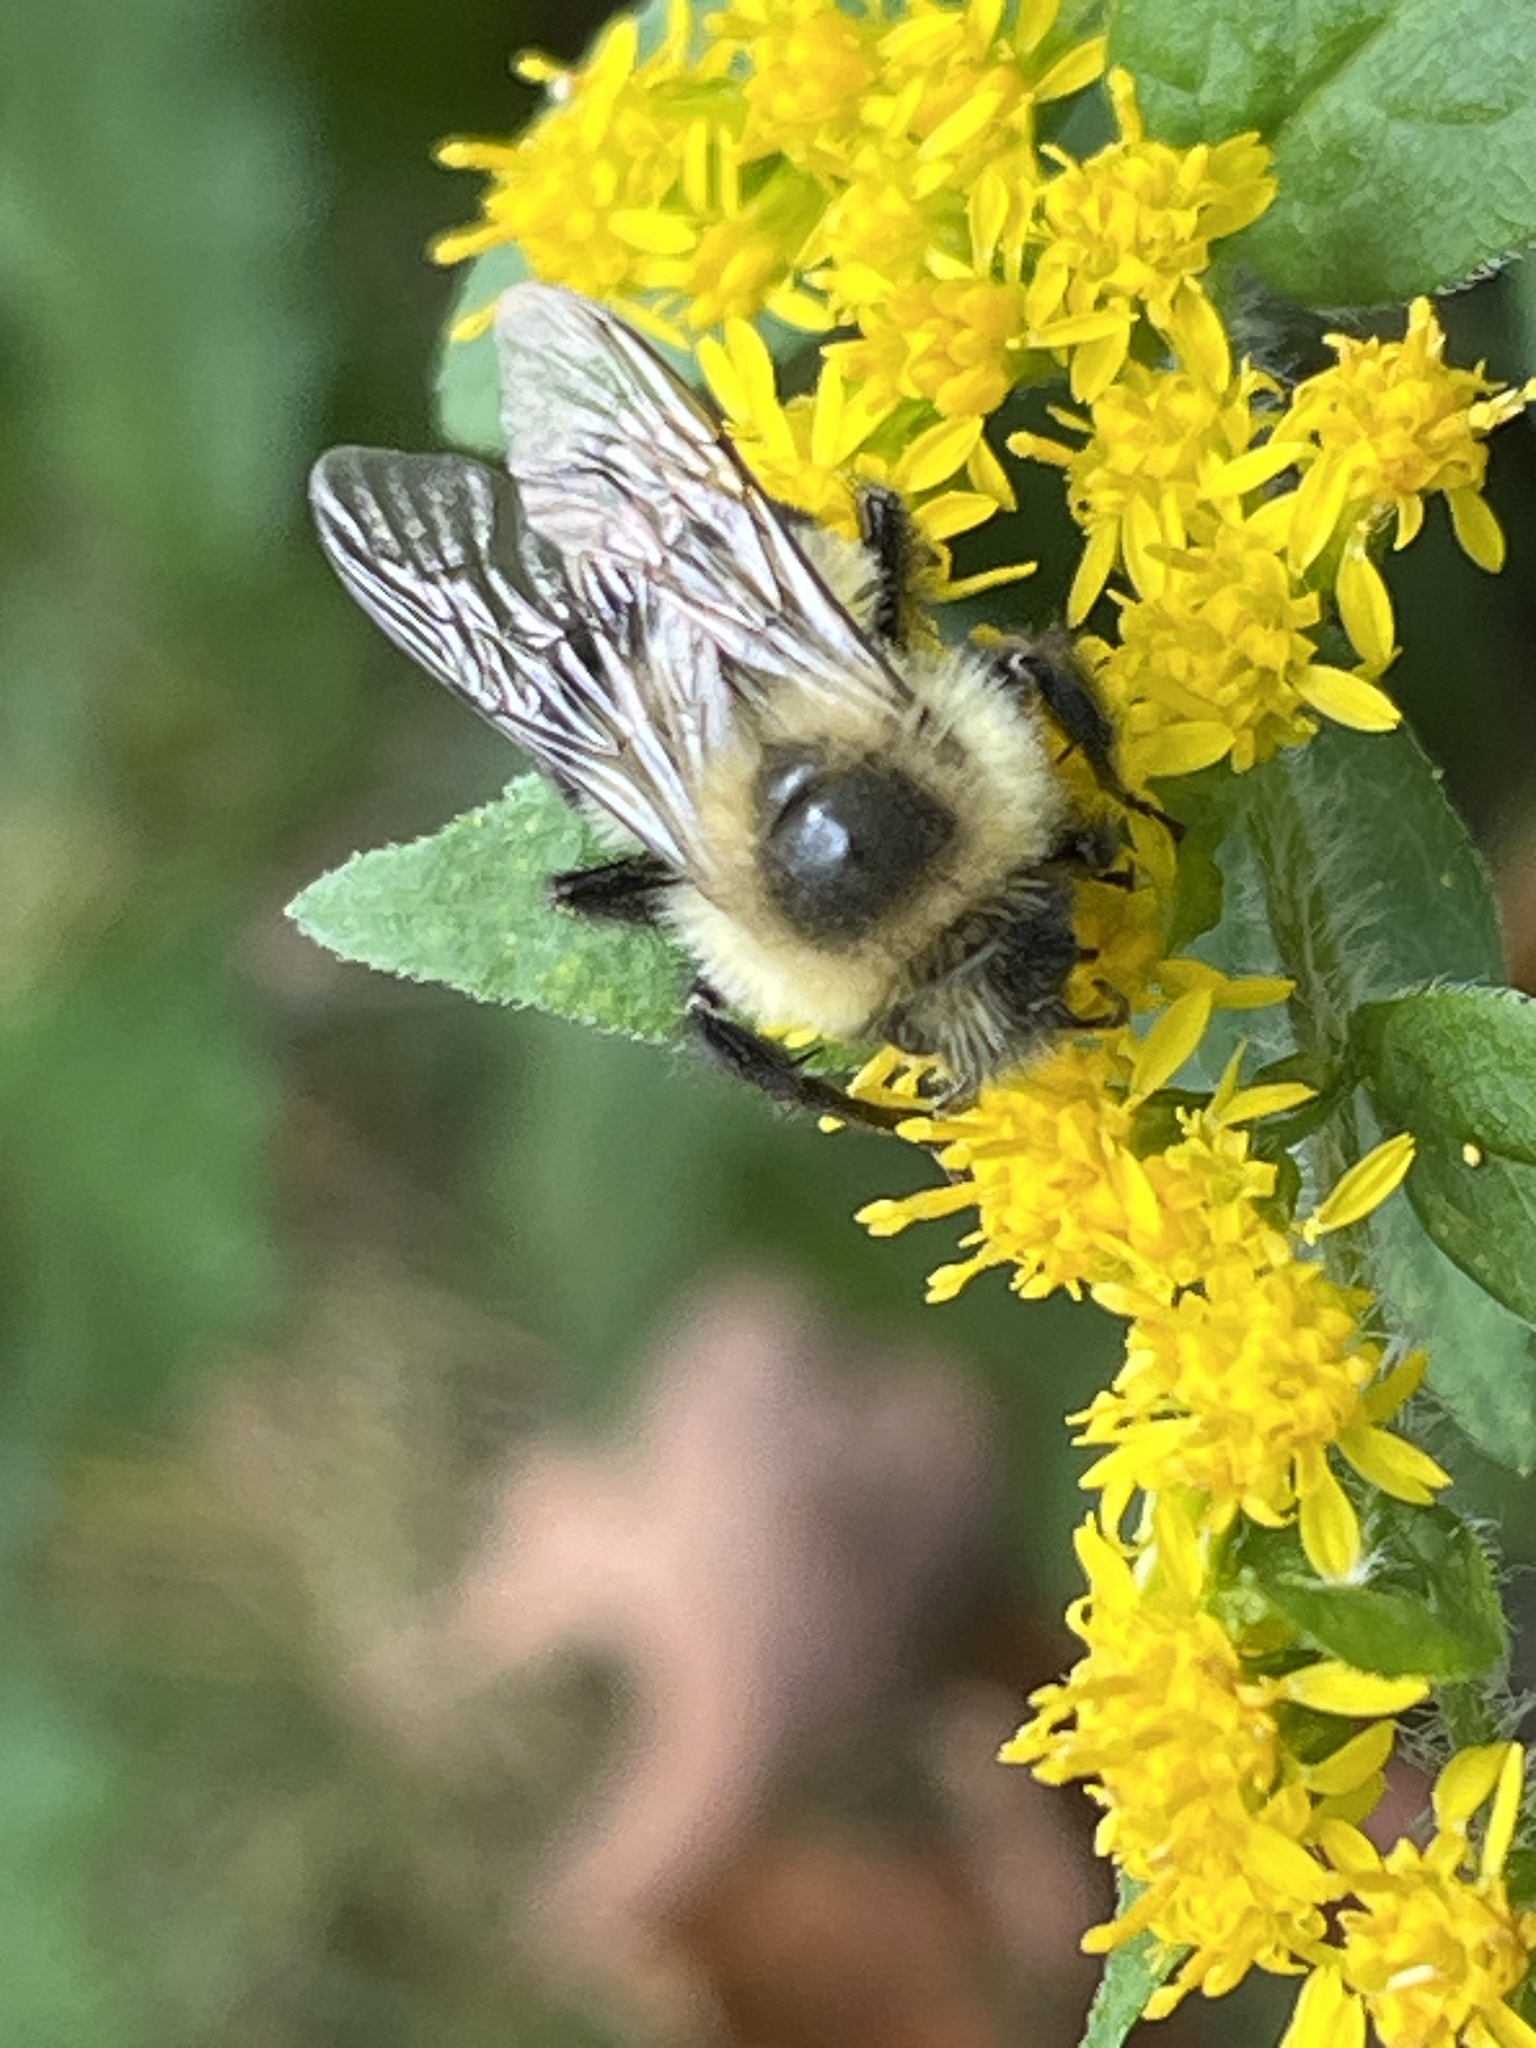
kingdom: Animalia
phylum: Arthropoda
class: Insecta
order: Hymenoptera
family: Apidae
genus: Bombus
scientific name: Bombus impatiens
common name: Common eastern bumble bee
